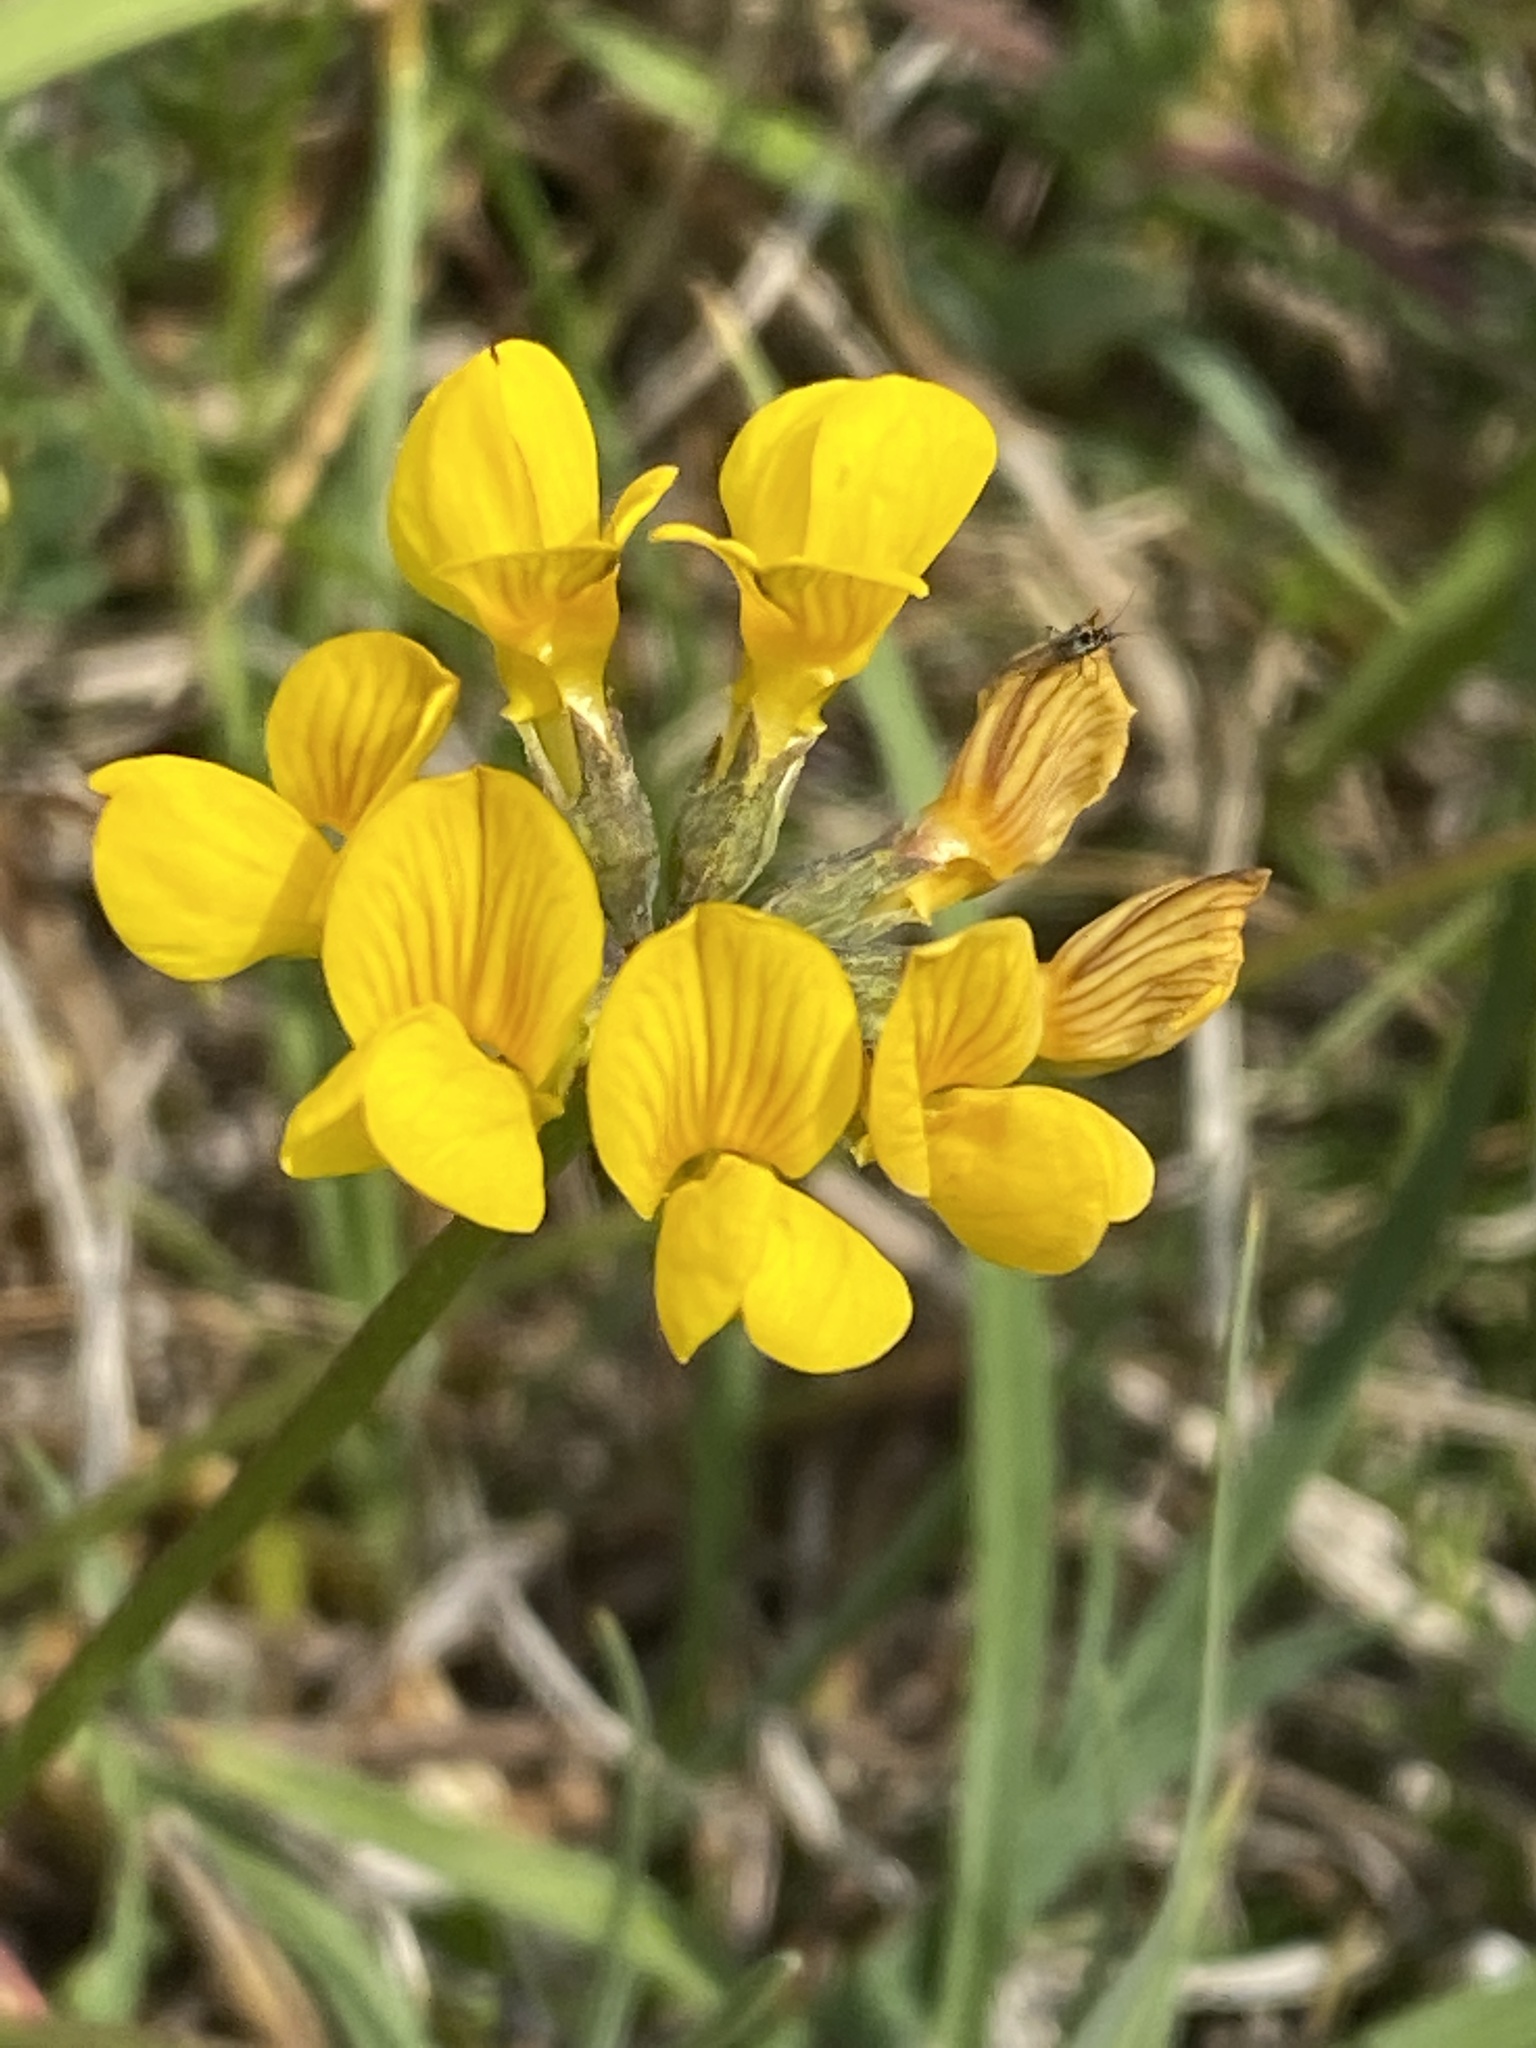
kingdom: Plantae
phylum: Tracheophyta
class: Magnoliopsida
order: Fabales
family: Fabaceae
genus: Hippocrepis
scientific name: Hippocrepis comosa
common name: Horseshoe vetch
